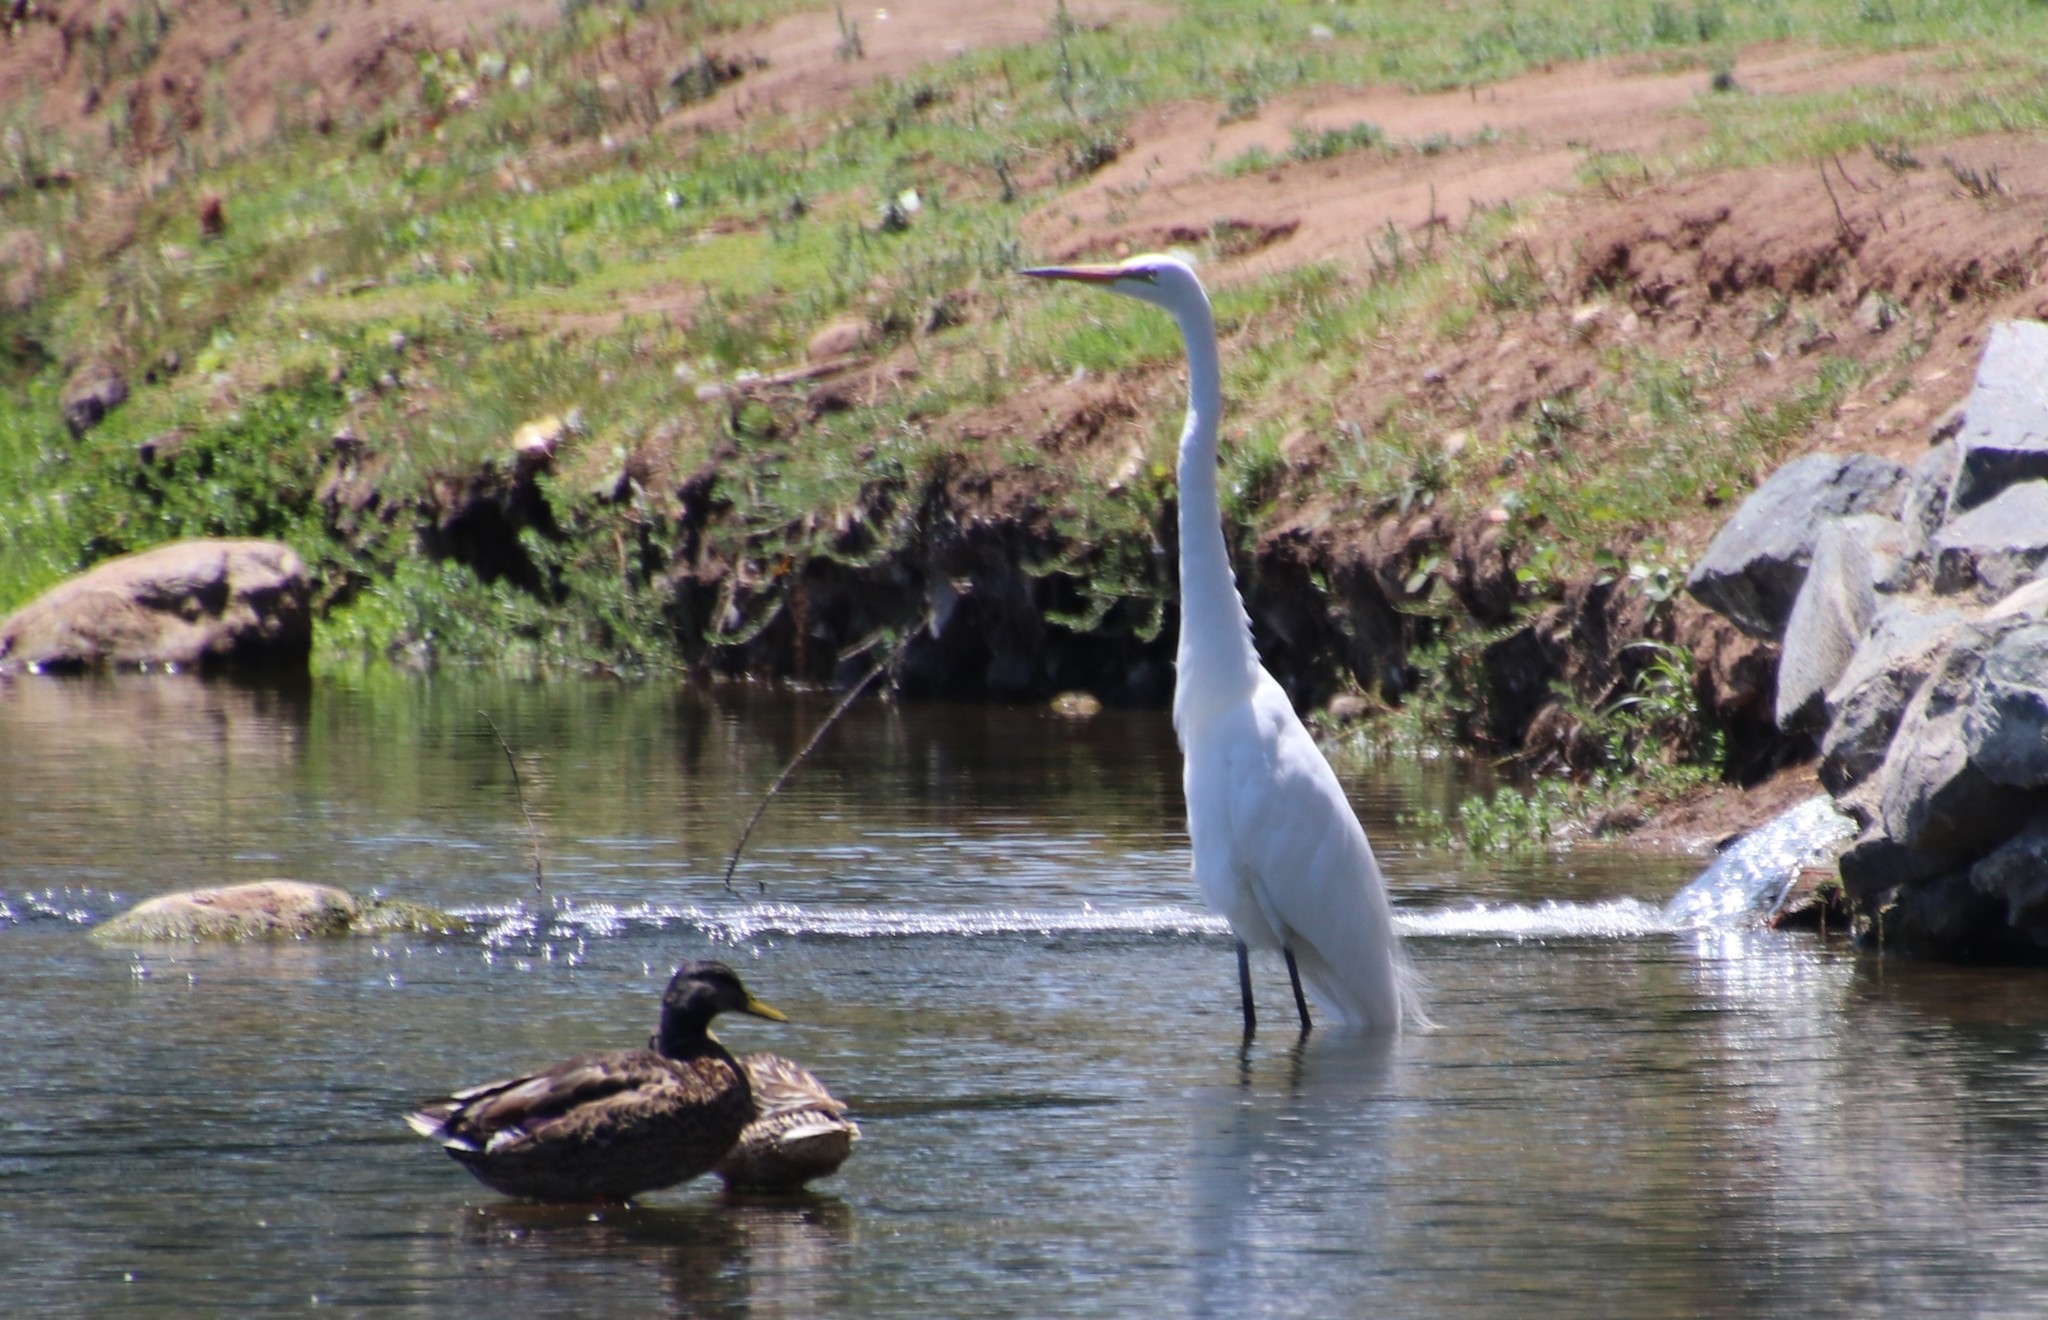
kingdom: Animalia
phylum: Chordata
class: Aves
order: Pelecaniformes
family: Ardeidae
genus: Ardea
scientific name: Ardea alba
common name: Great egret
